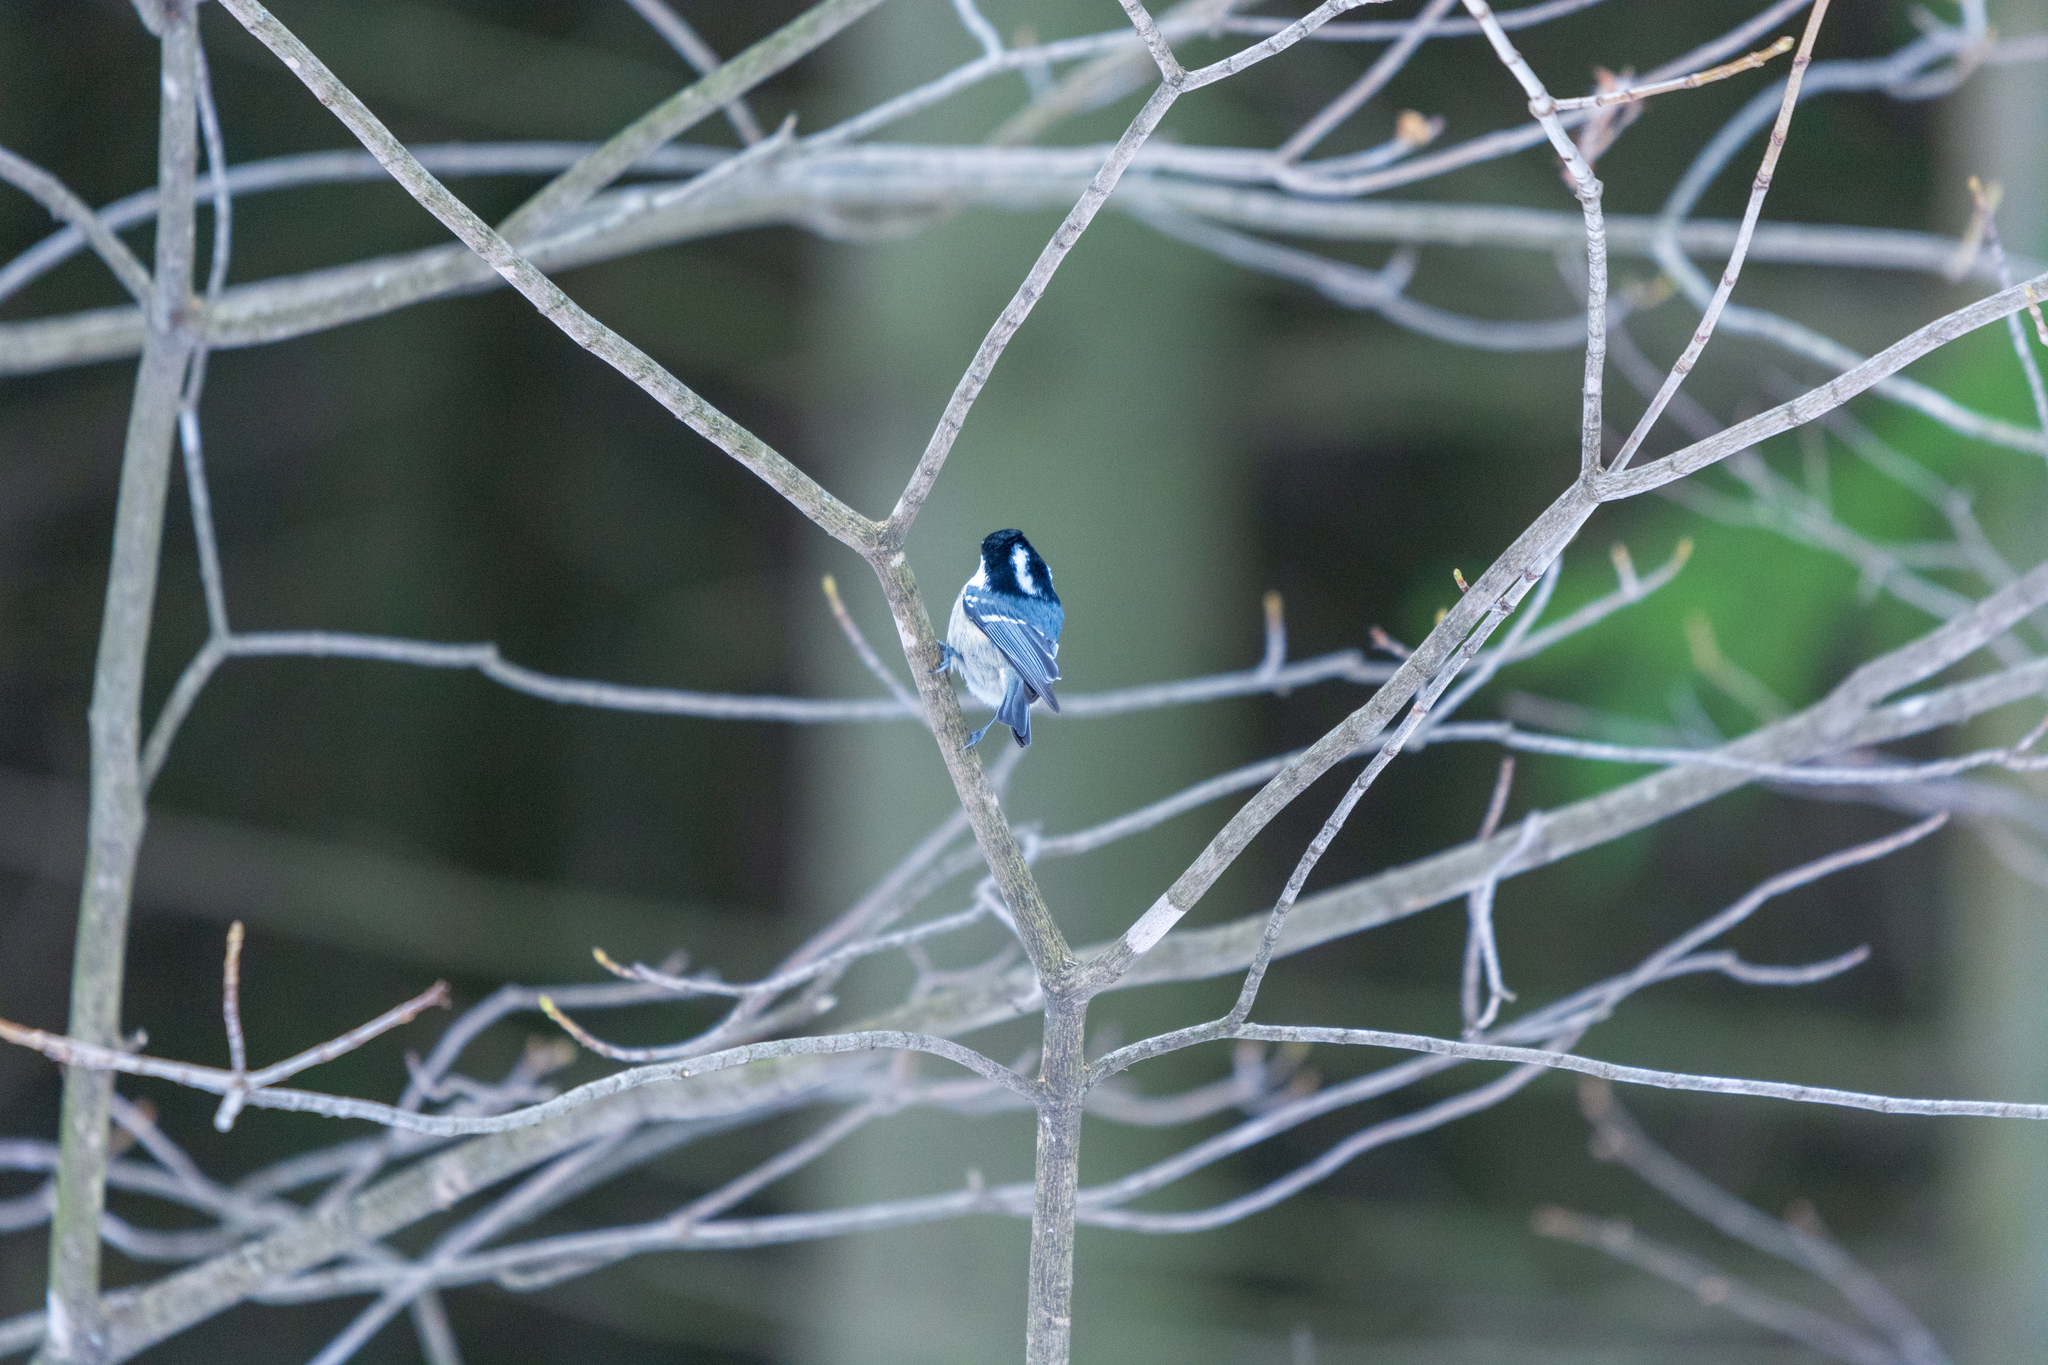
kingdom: Animalia
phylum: Chordata
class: Aves
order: Passeriformes
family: Paridae
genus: Periparus
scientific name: Periparus ater
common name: Coal tit
